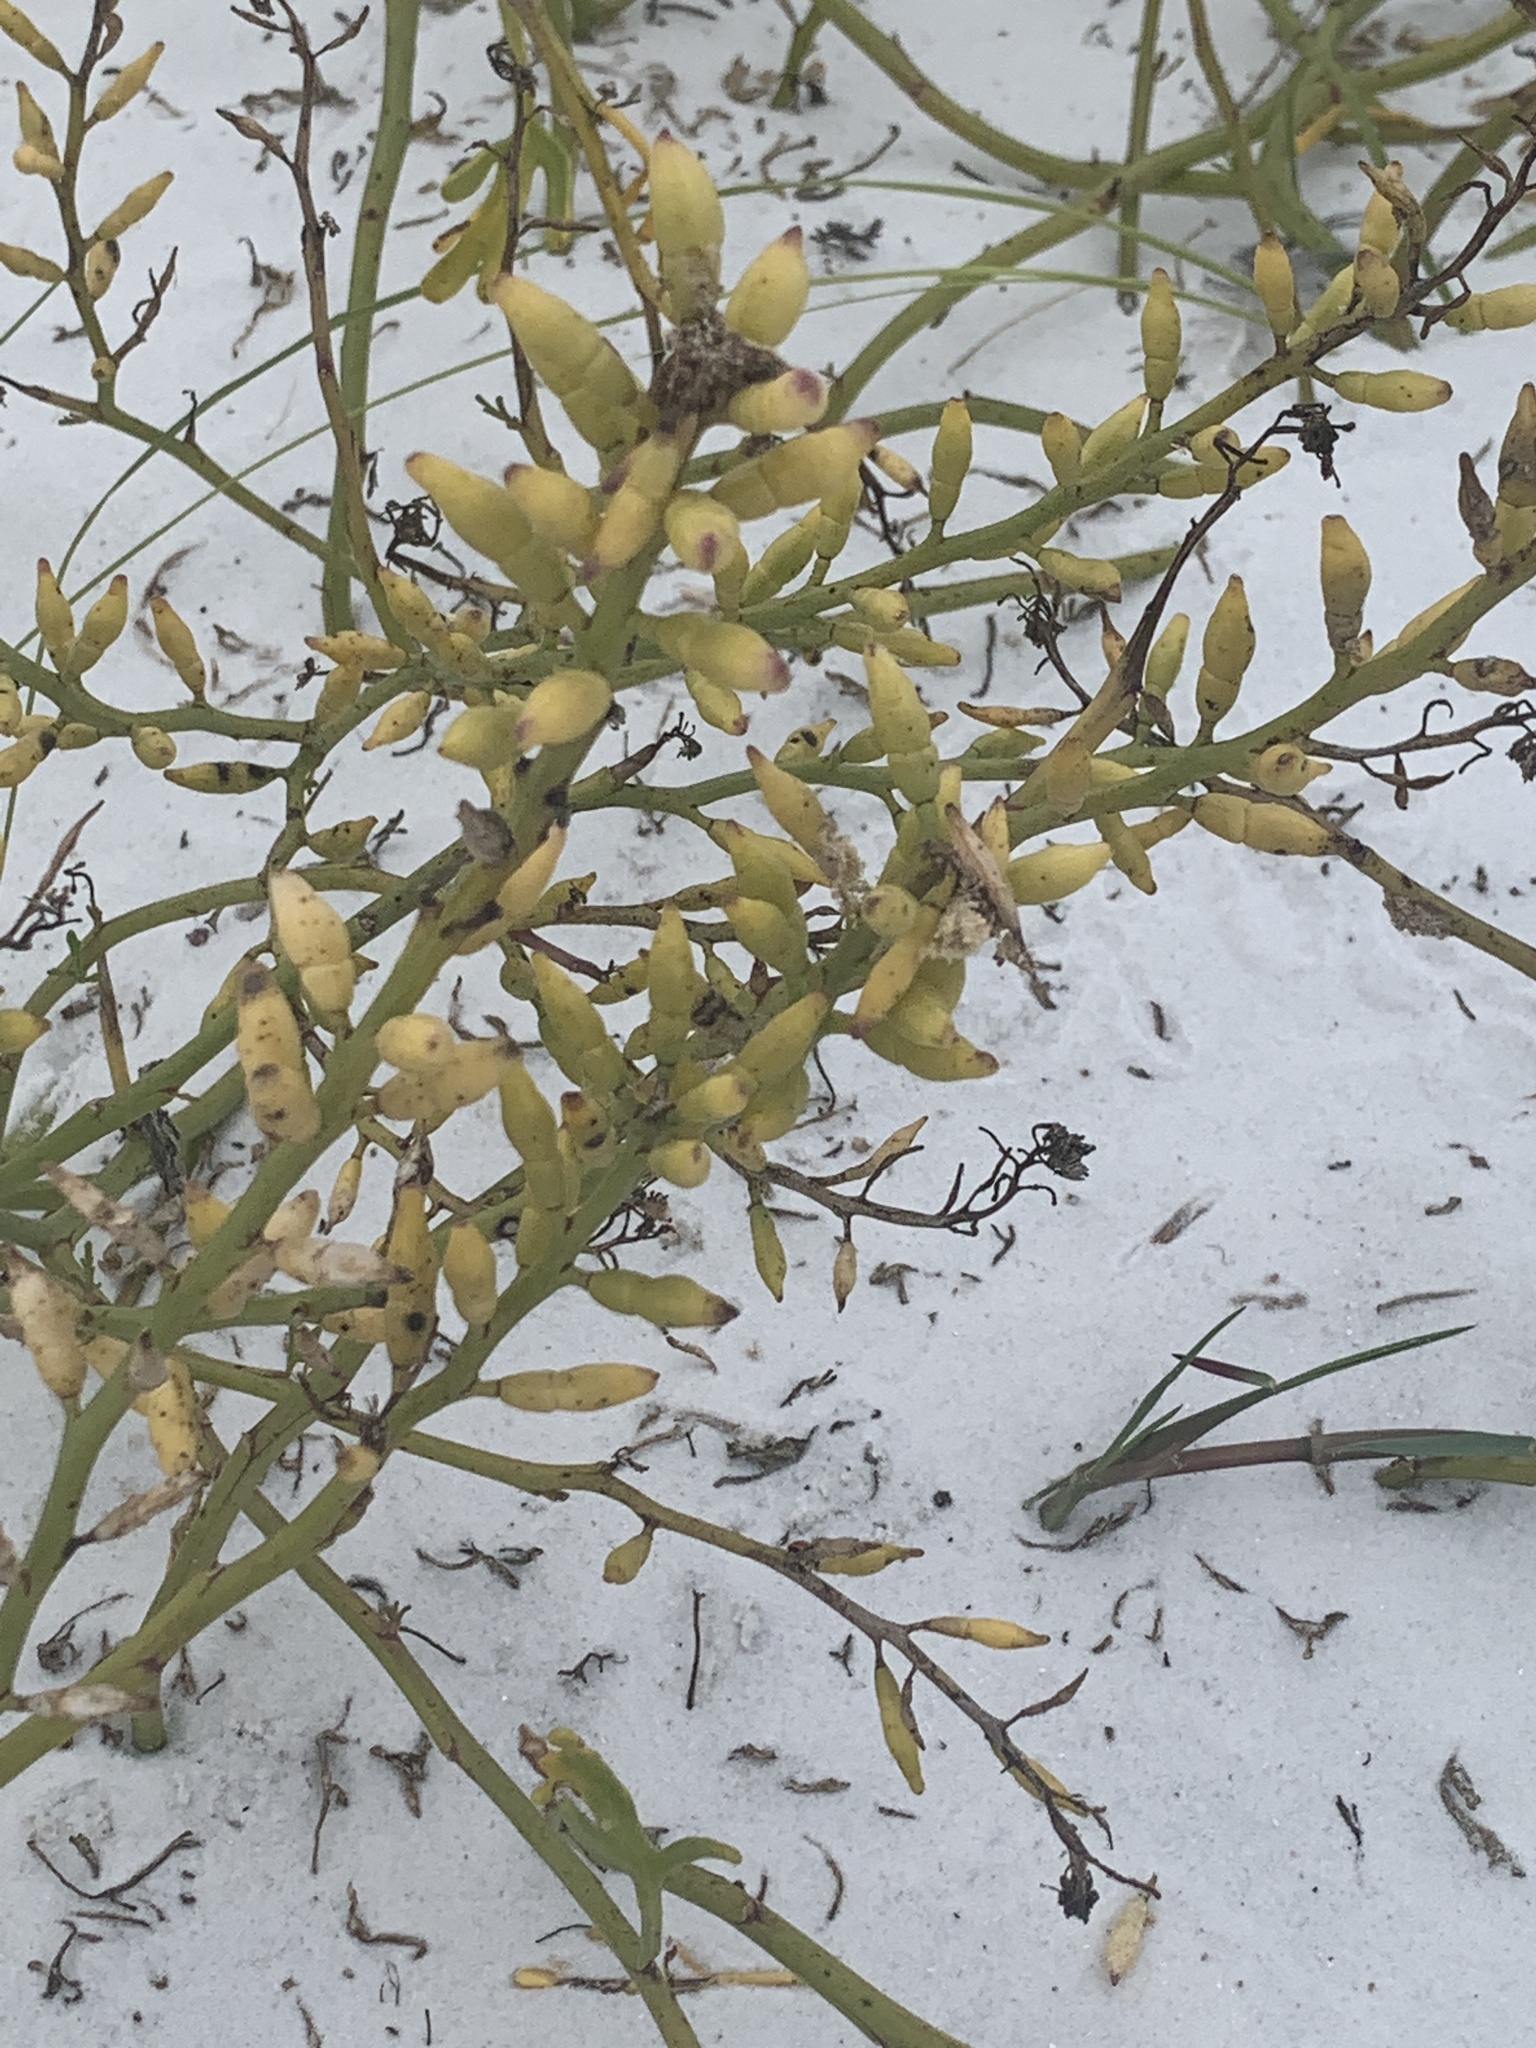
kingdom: Plantae
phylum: Tracheophyta
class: Magnoliopsida
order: Brassicales
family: Brassicaceae
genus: Cakile
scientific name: Cakile lanceolata
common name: Sea rocket
